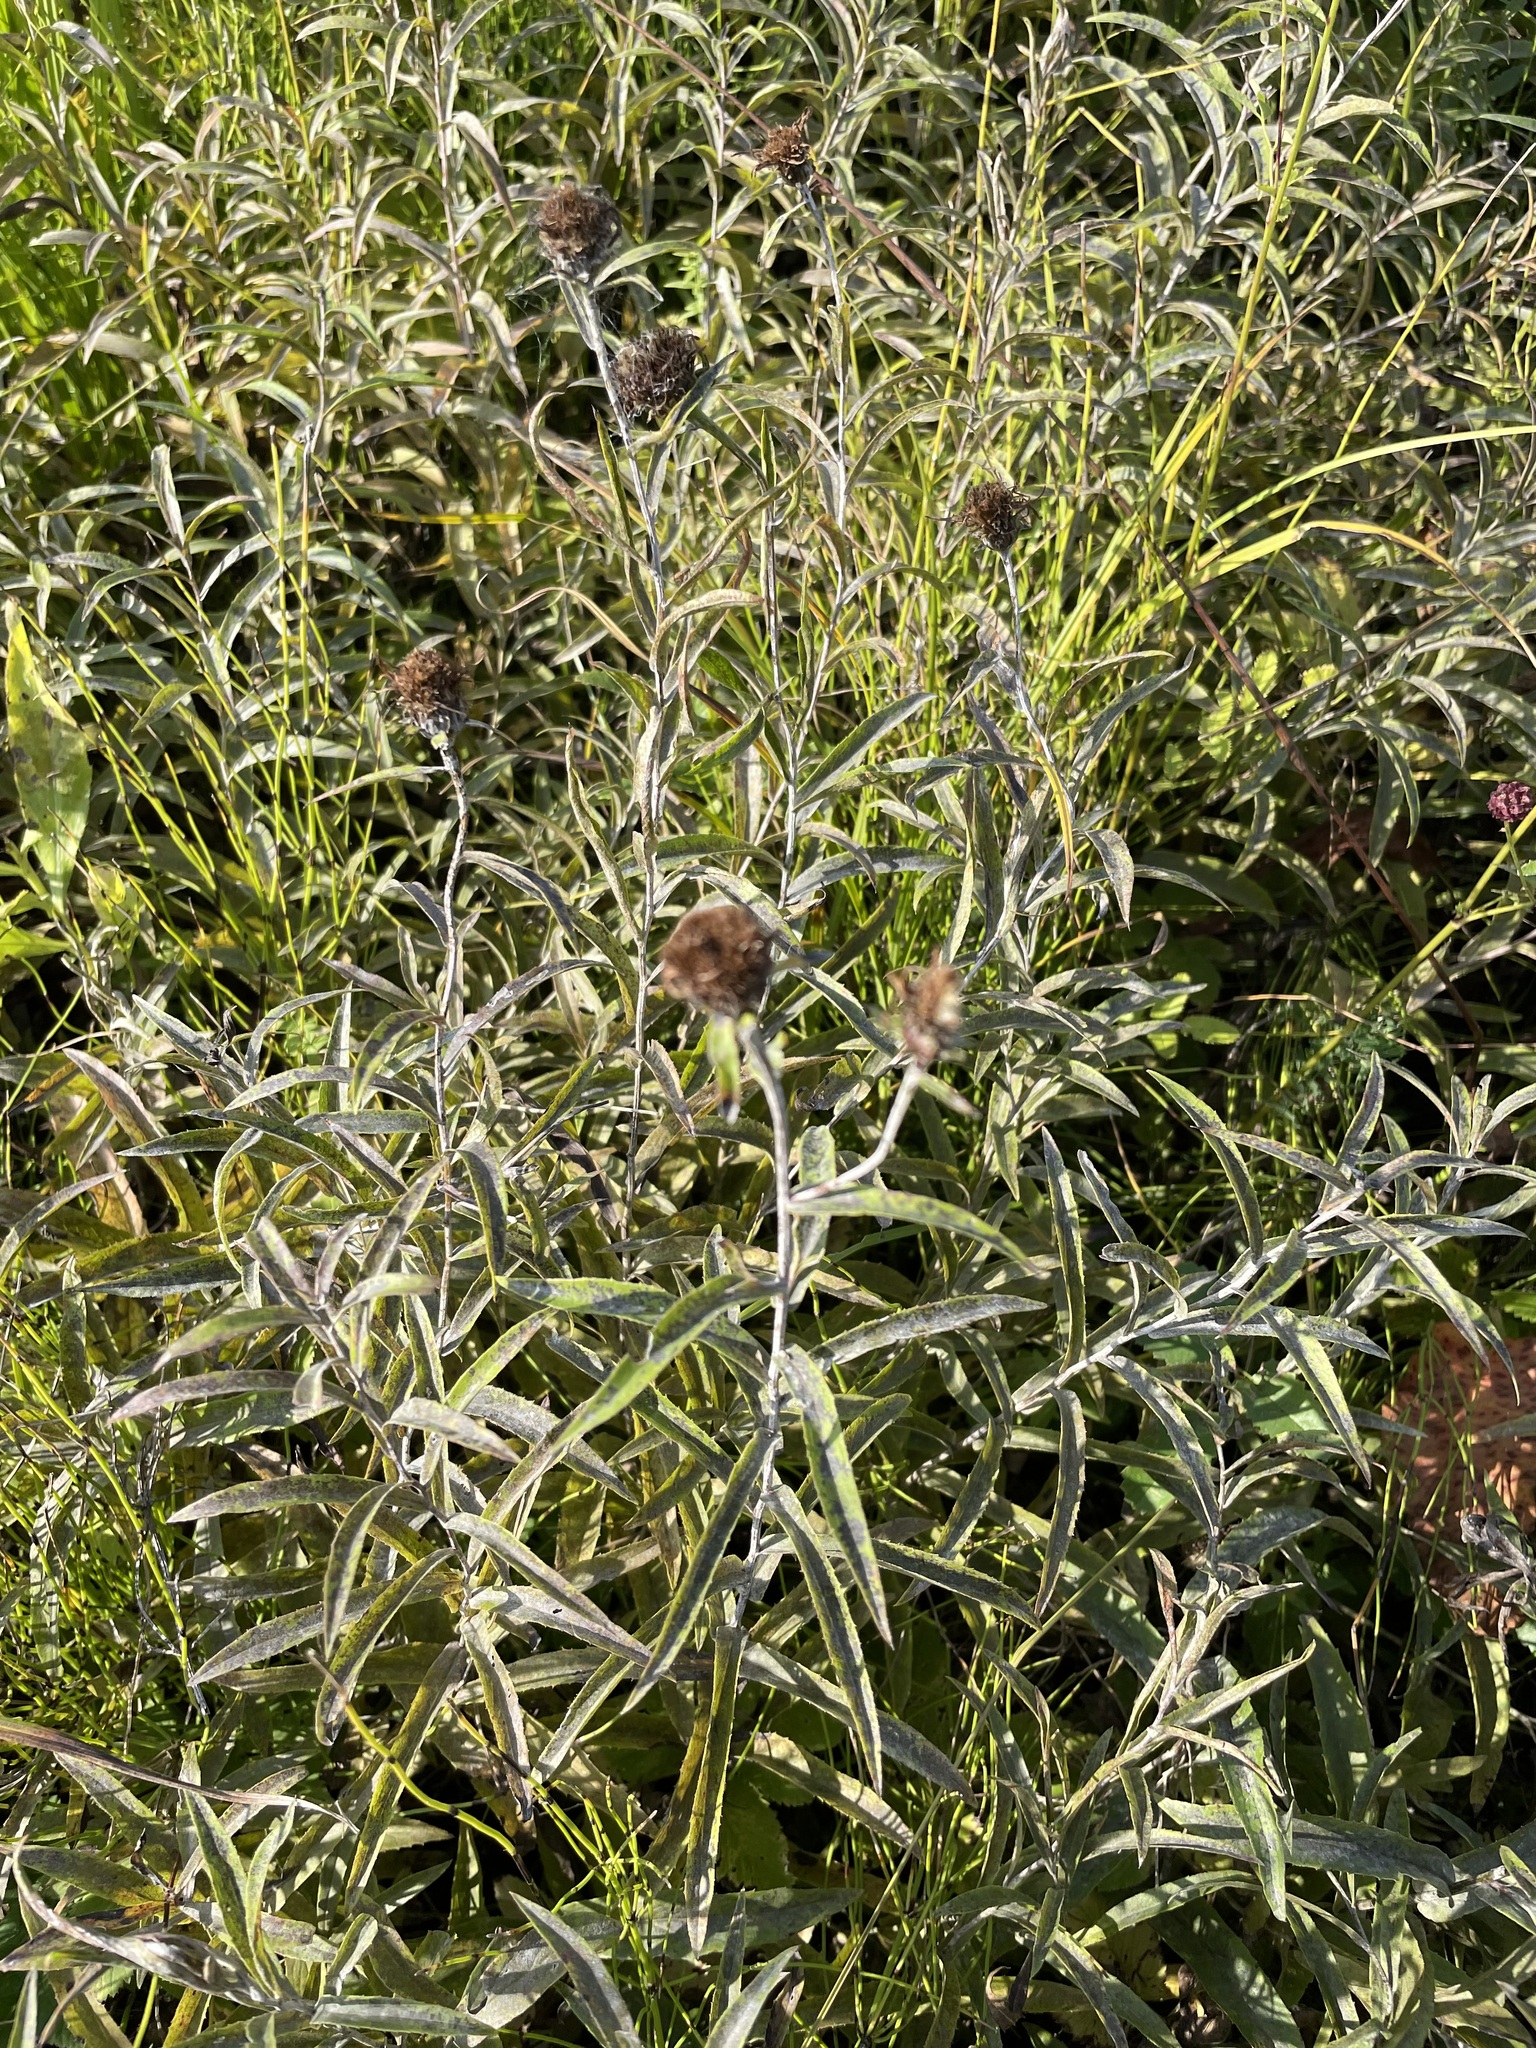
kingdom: Plantae
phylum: Tracheophyta
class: Magnoliopsida
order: Asterales
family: Asteraceae
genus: Pentanema
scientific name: Pentanema salicinum
